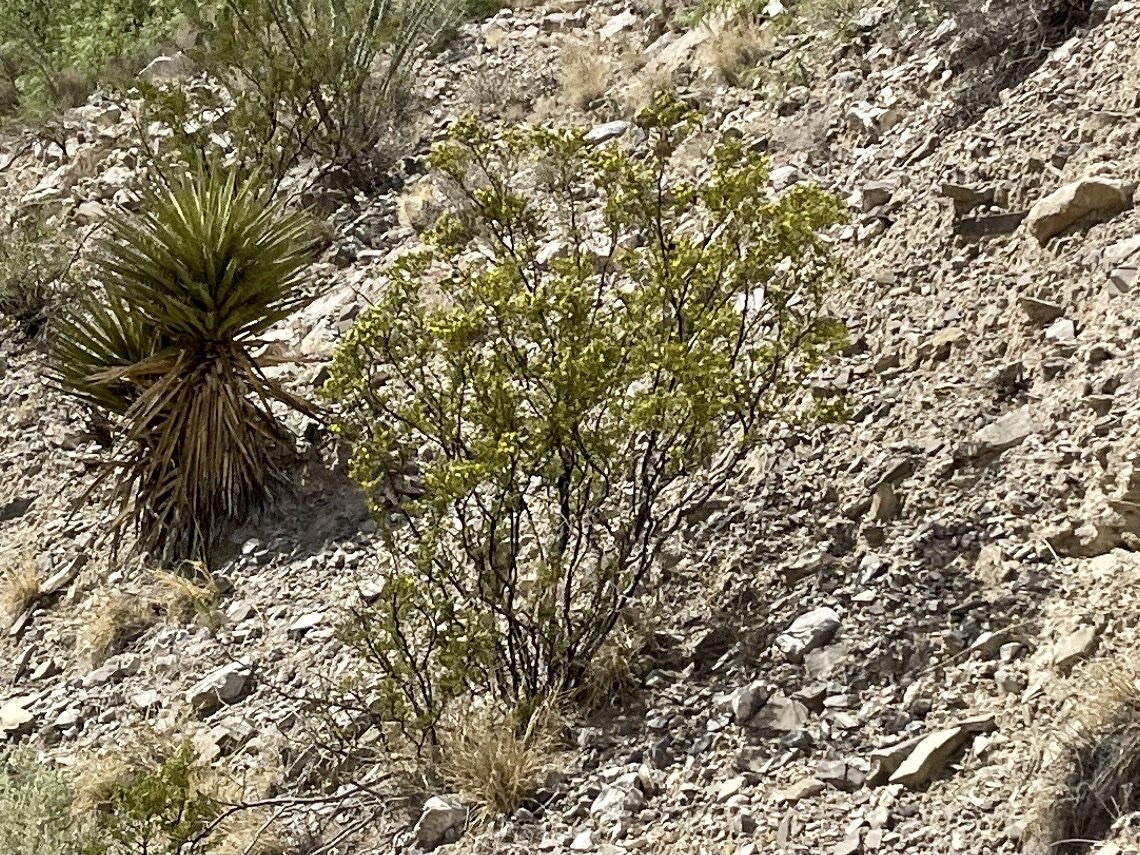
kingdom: Plantae
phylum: Tracheophyta
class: Magnoliopsida
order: Zygophyllales
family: Zygophyllaceae
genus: Larrea
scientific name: Larrea tridentata
